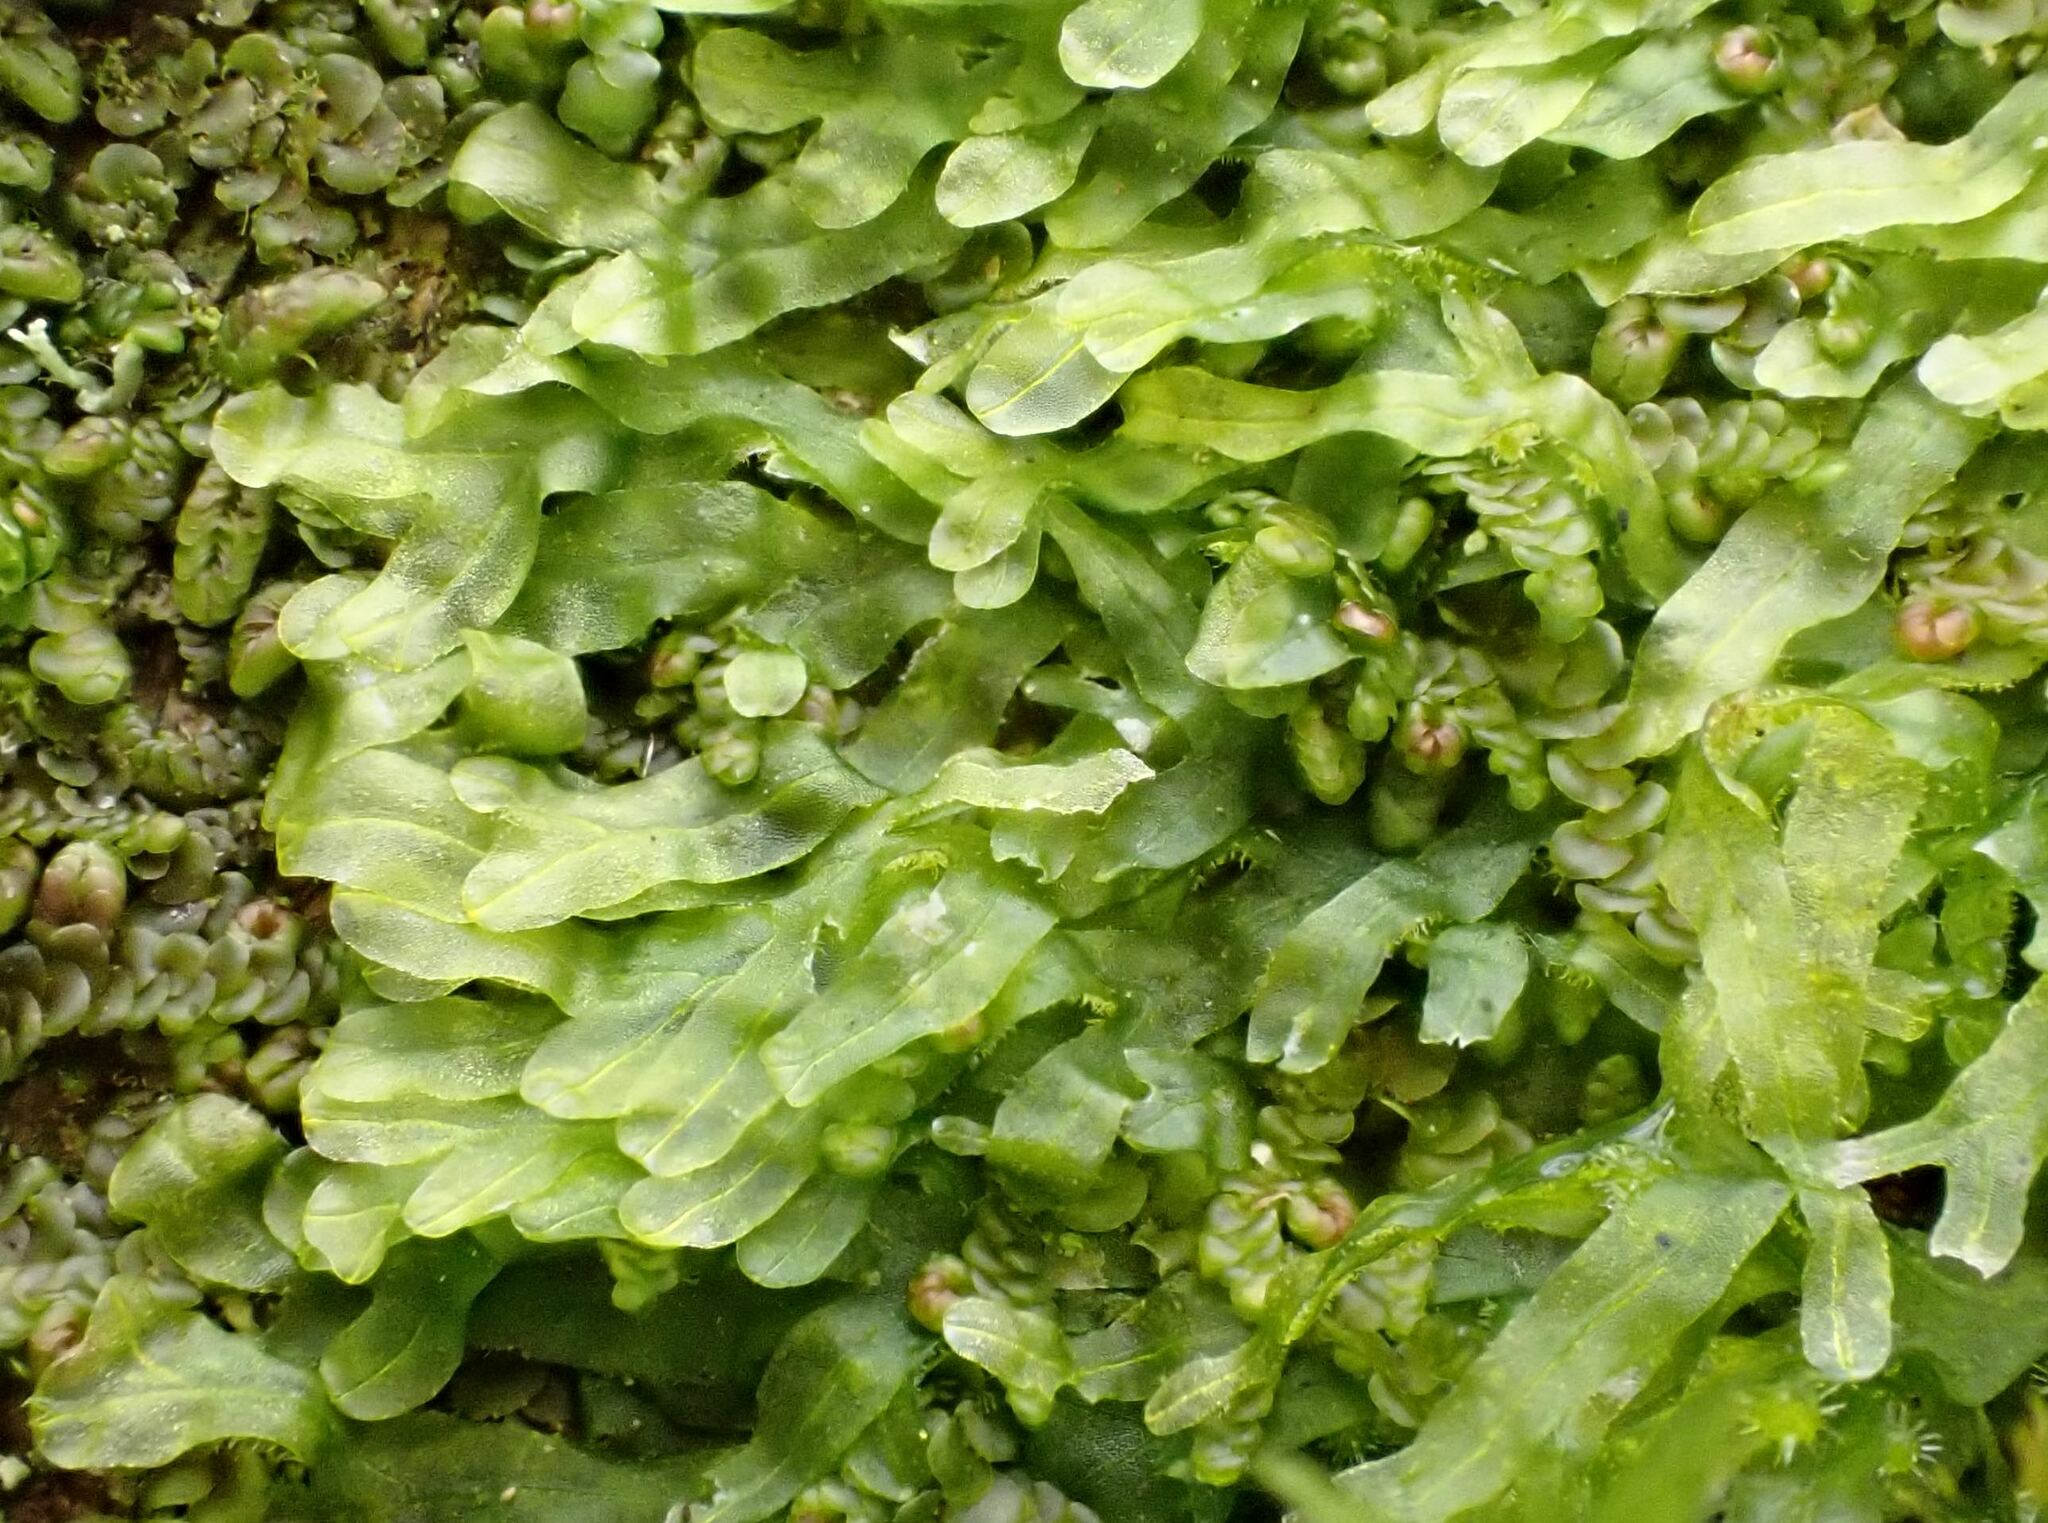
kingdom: Plantae
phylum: Marchantiophyta
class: Jungermanniopsida
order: Metzgeriales
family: Metzgeriaceae
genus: Metzgeria
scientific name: Metzgeria furcata
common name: Forked veilwort
